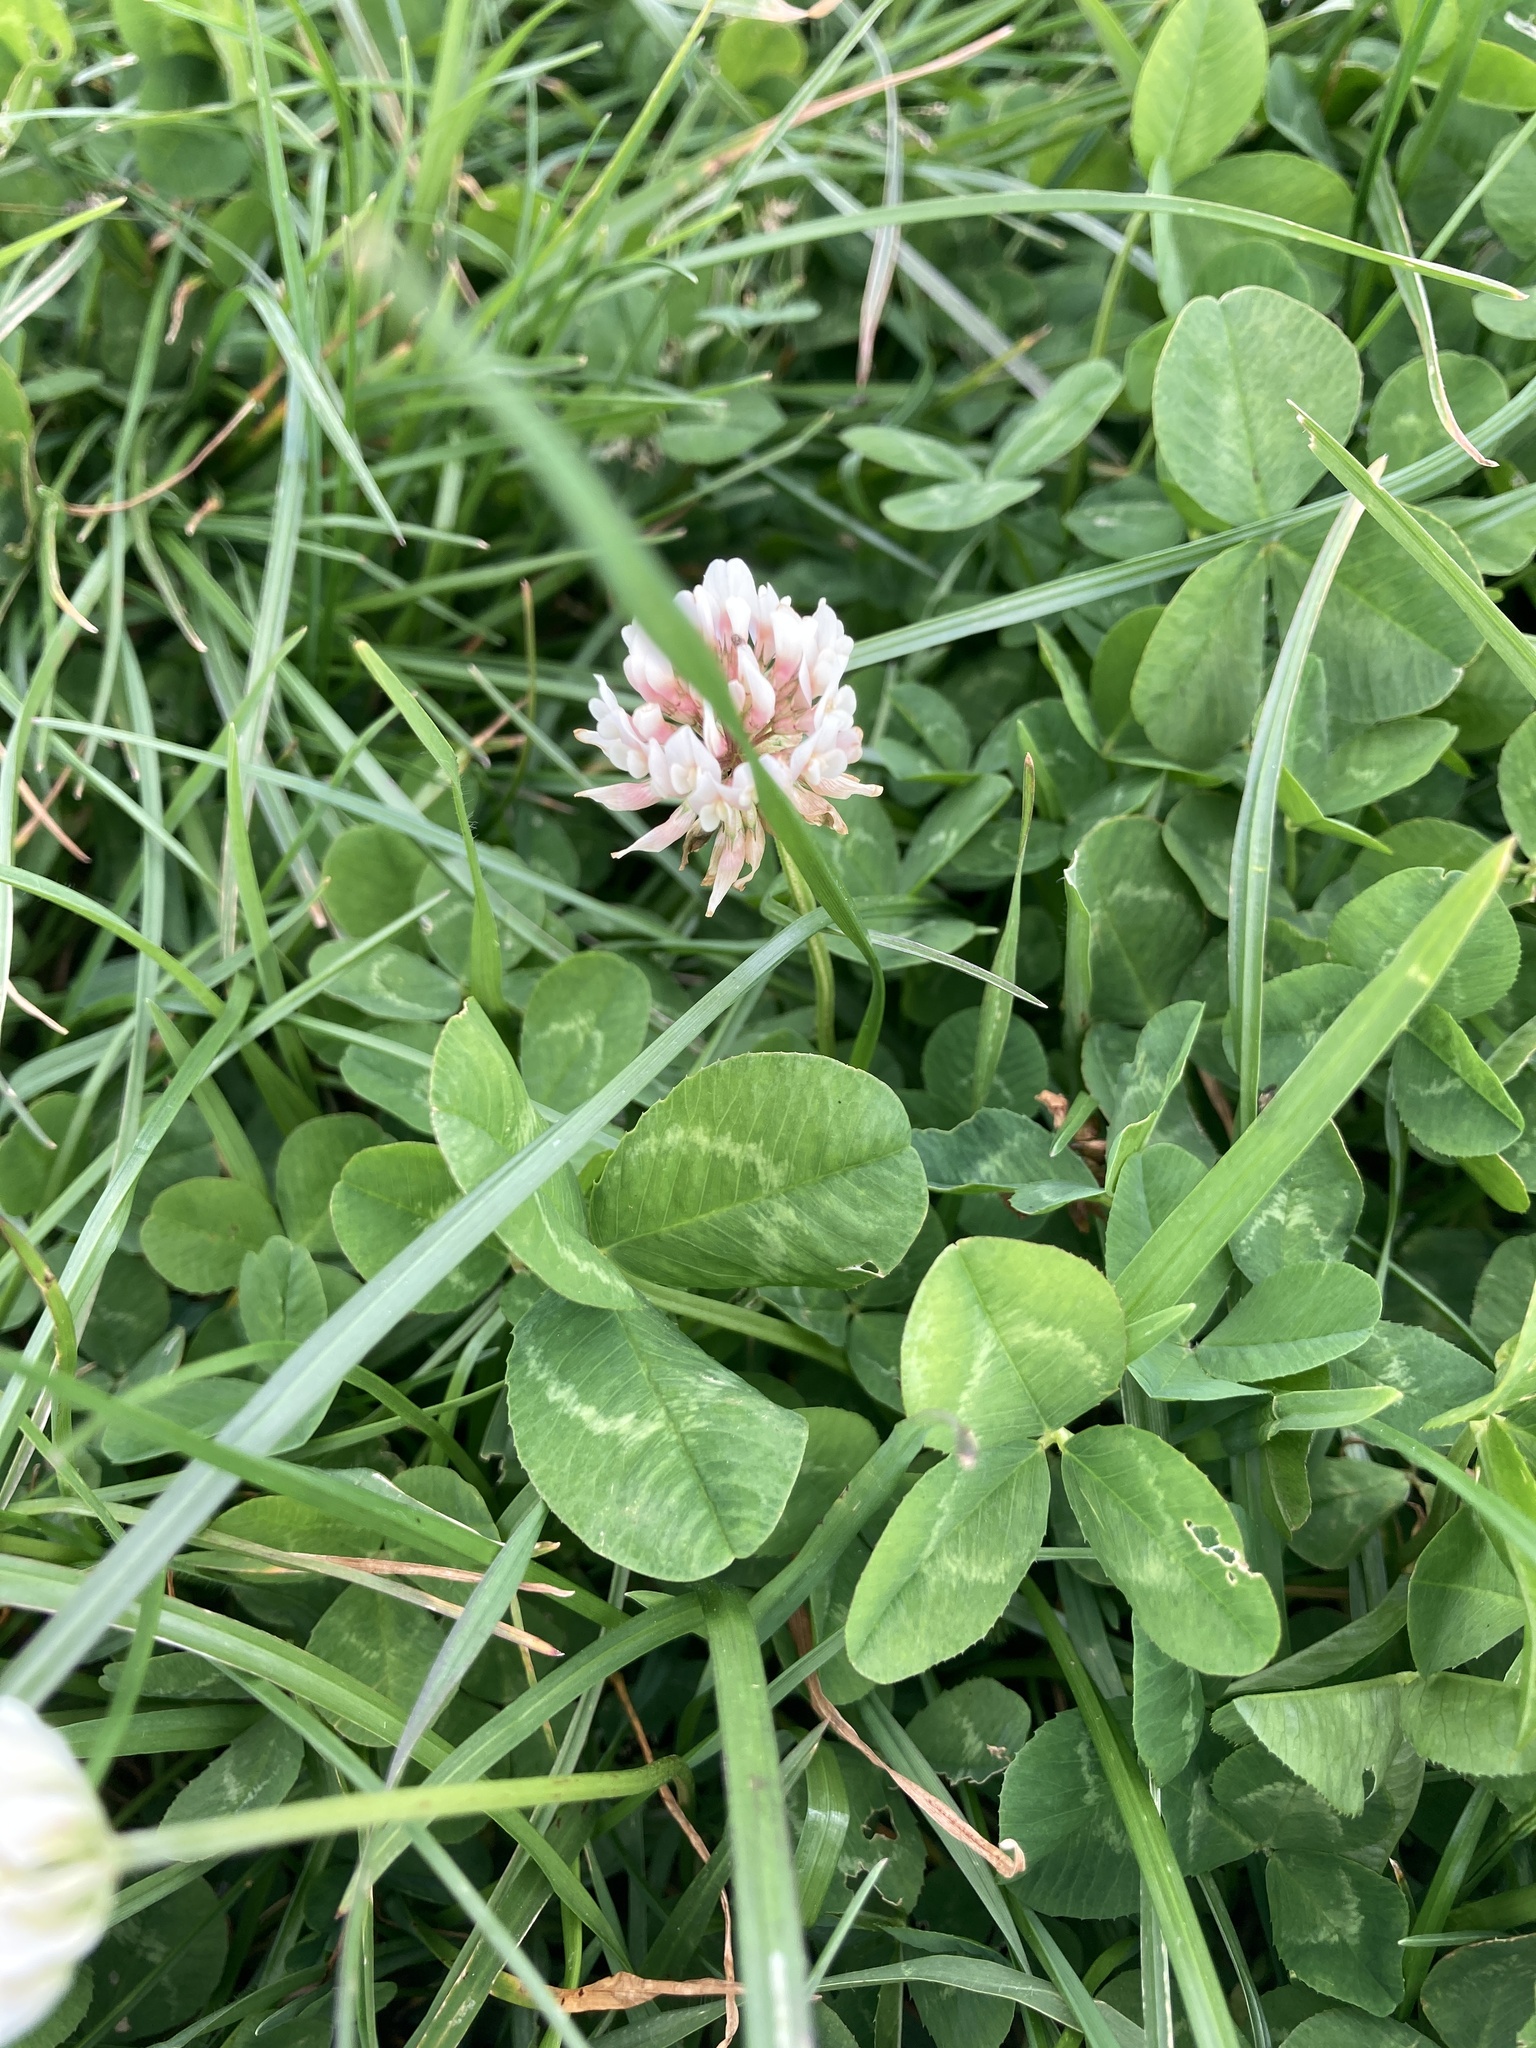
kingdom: Plantae
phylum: Tracheophyta
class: Magnoliopsida
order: Fabales
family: Fabaceae
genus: Trifolium
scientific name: Trifolium repens
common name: White clover
